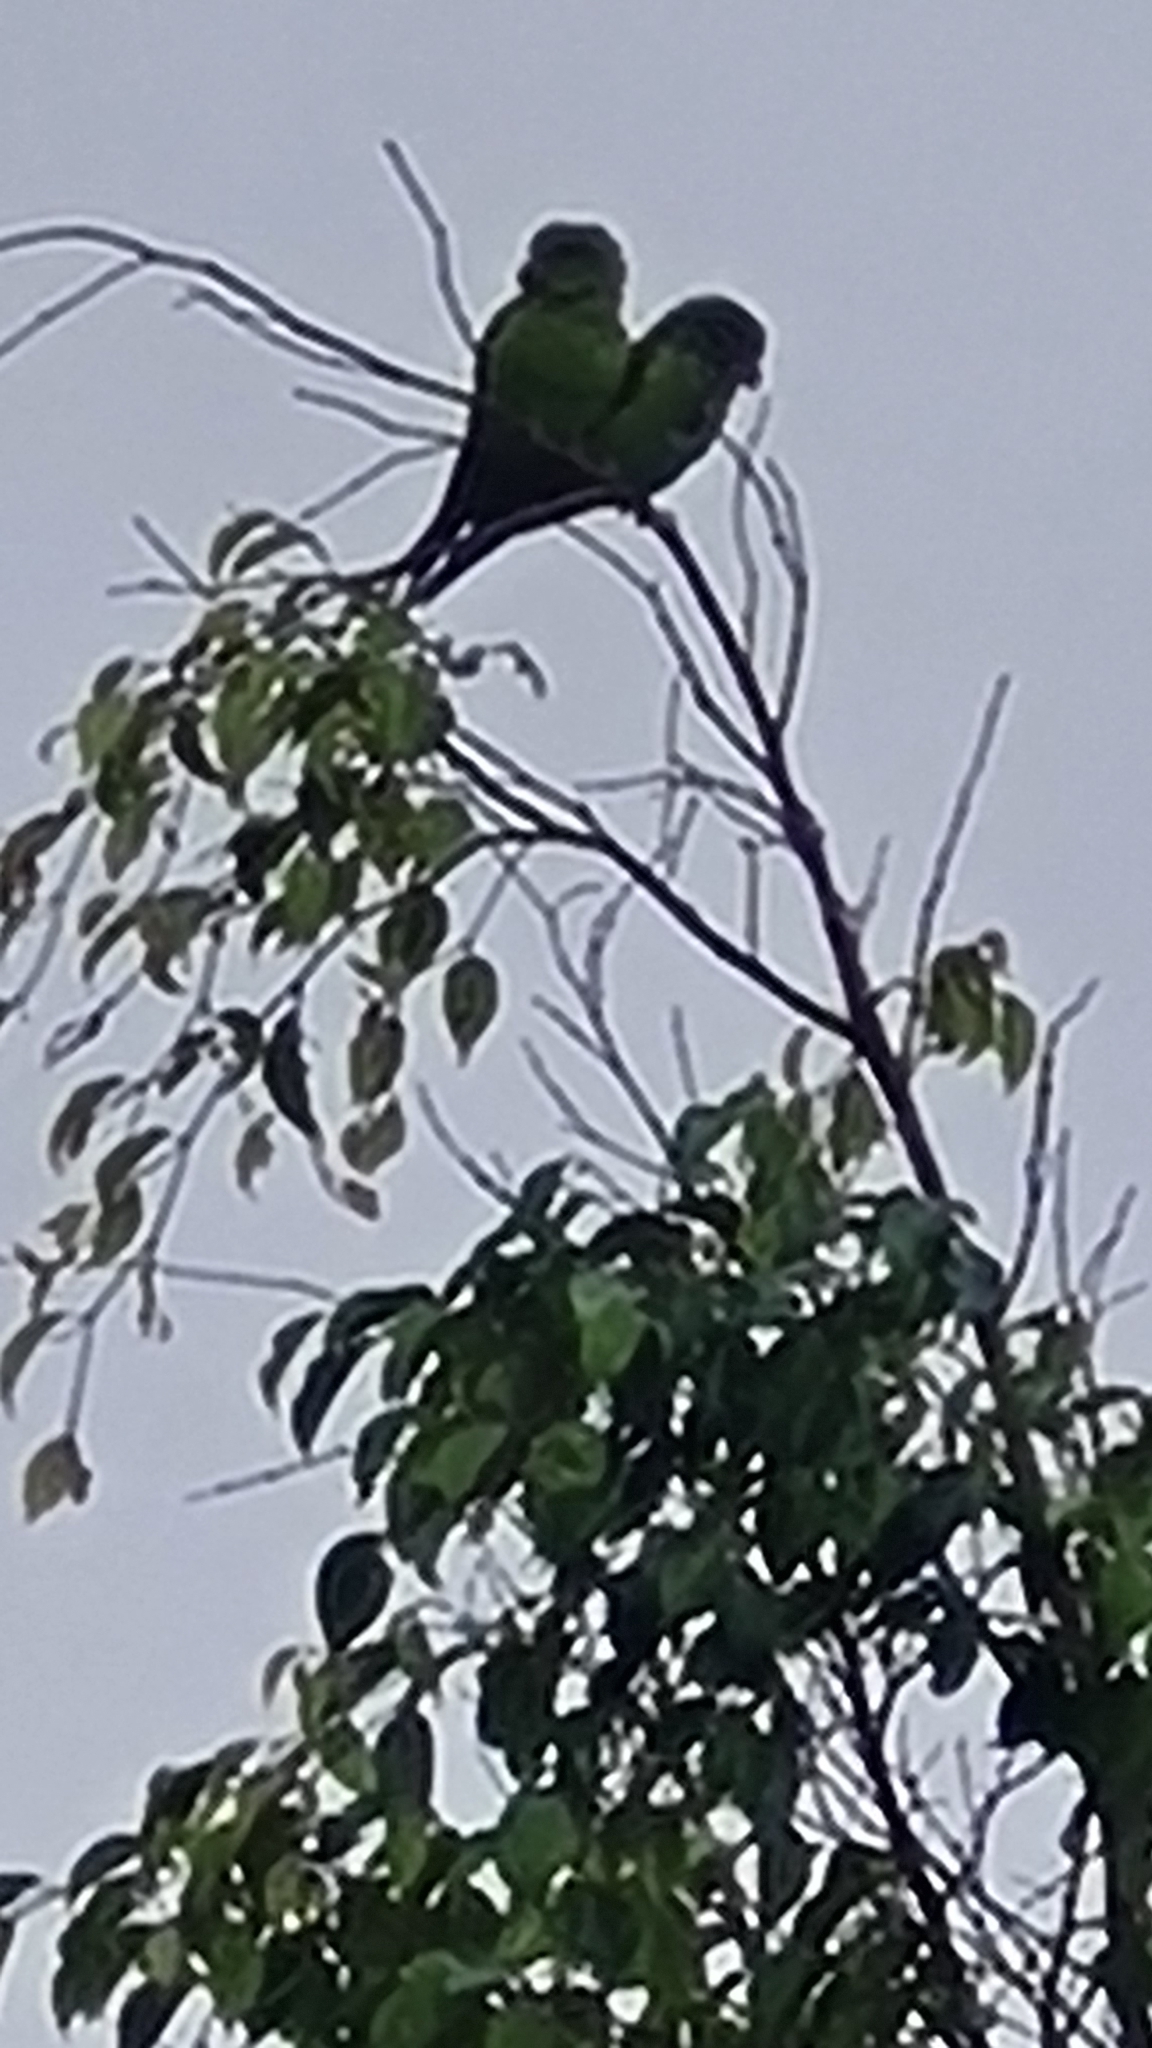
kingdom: Animalia
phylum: Chordata
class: Aves
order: Psittaciformes
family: Psittacidae
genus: Brotogeris
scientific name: Brotogeris tirica
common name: Plain parakeet
